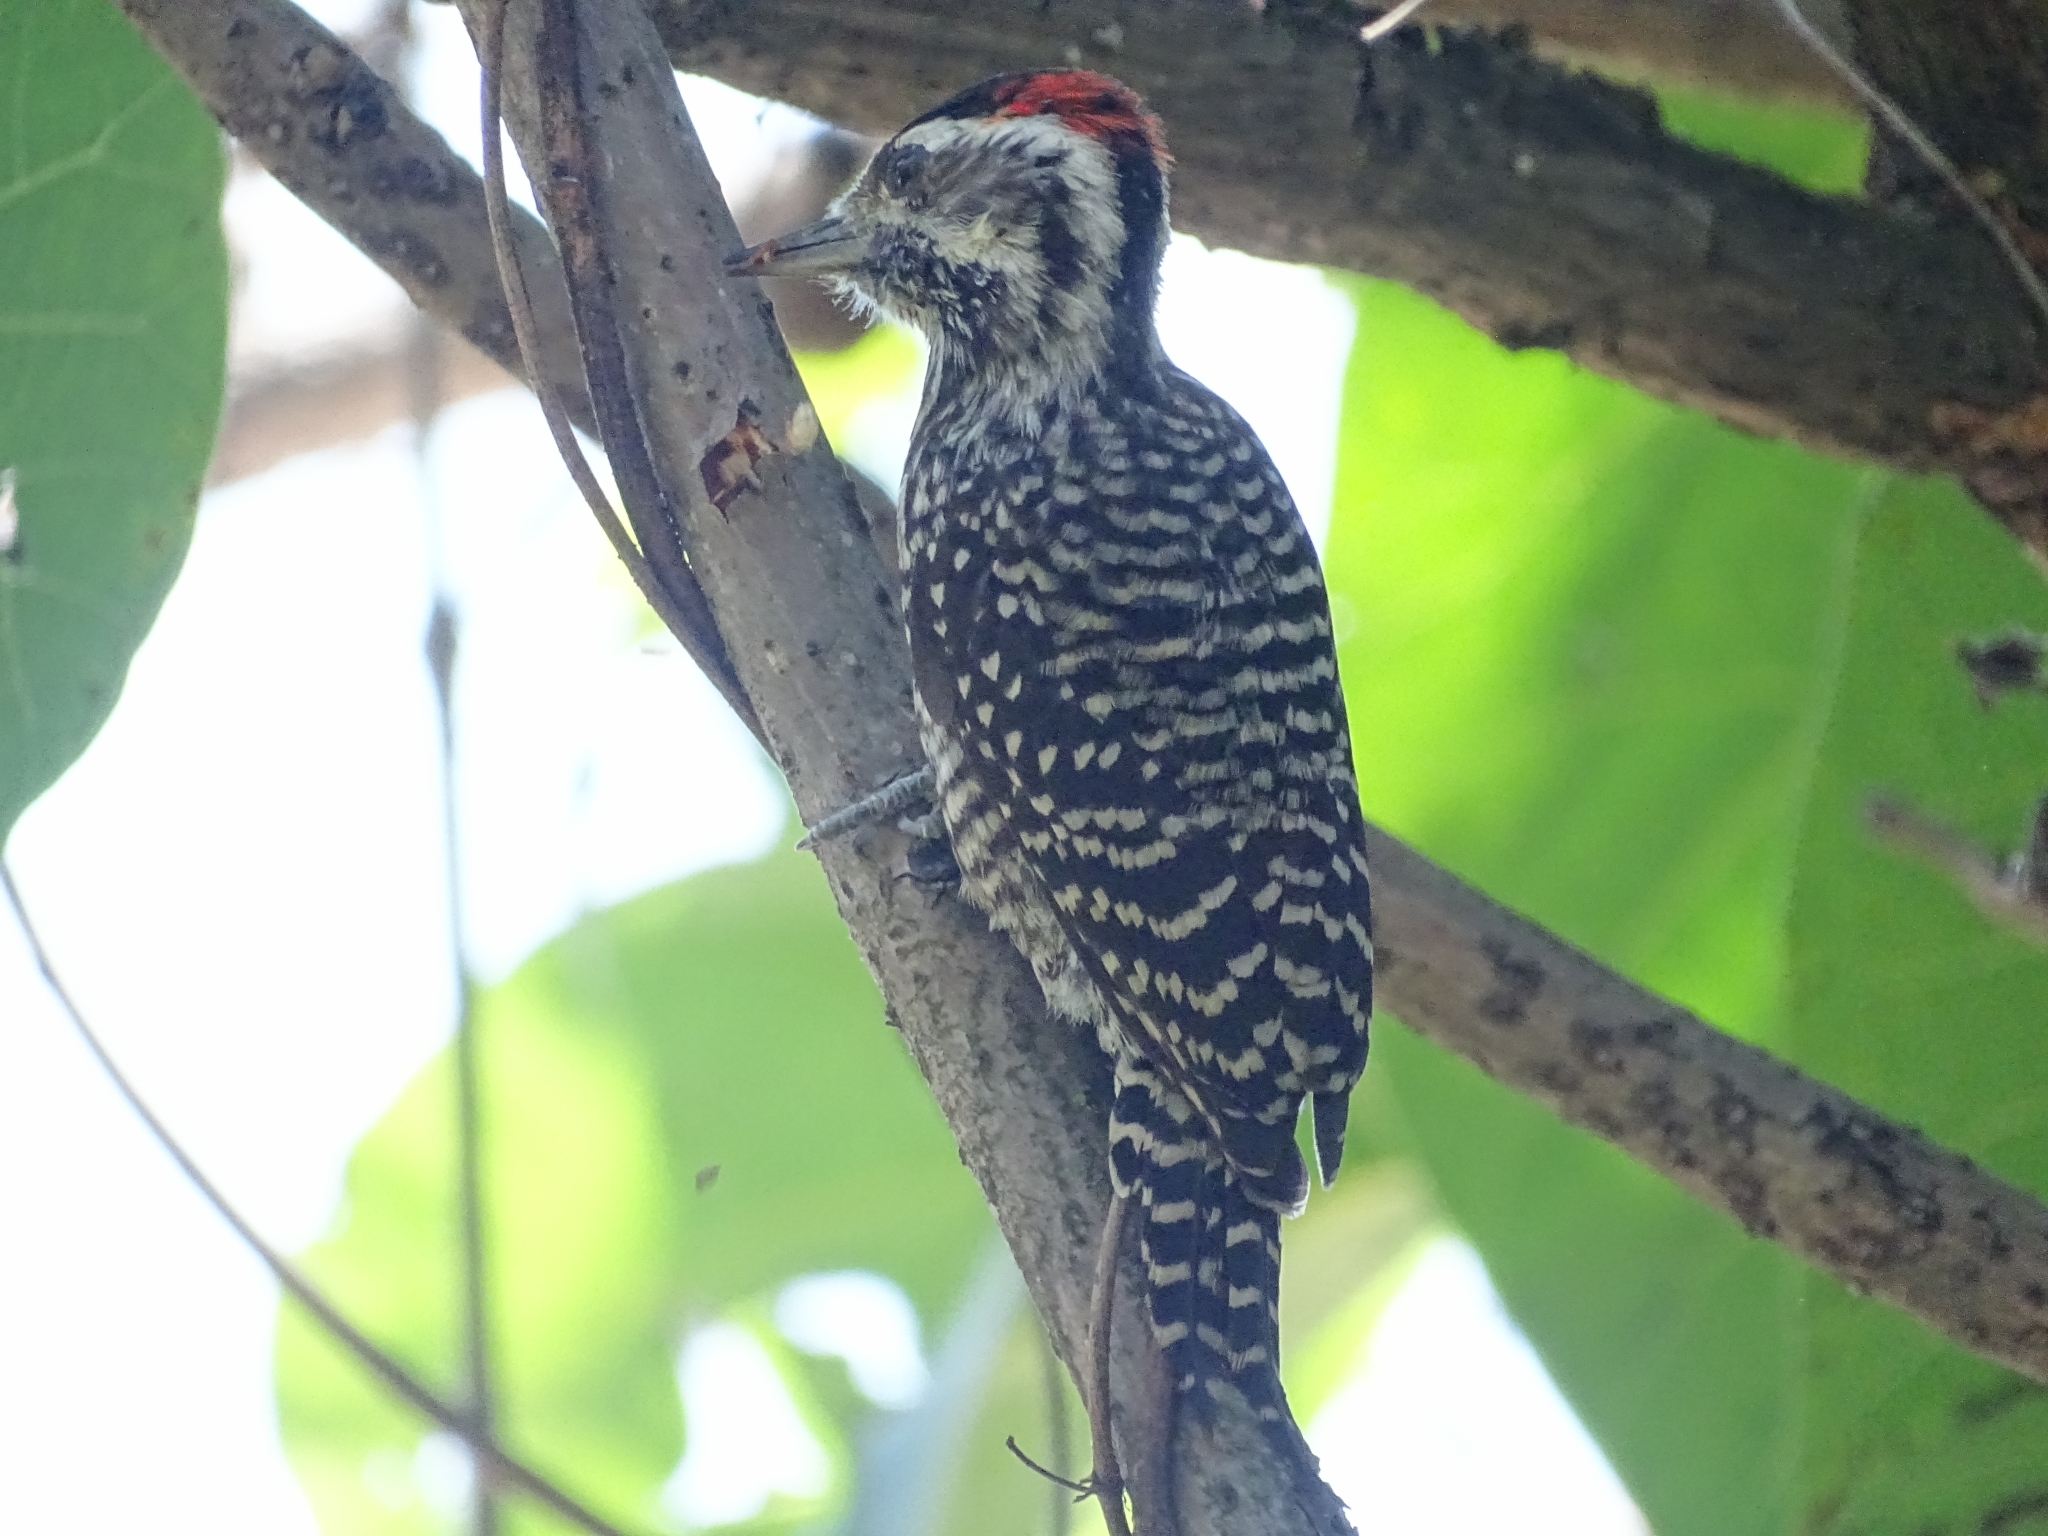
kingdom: Animalia
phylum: Chordata
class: Aves
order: Piciformes
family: Picidae
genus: Veniliornis
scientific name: Veniliornis lignarius
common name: Striped woodpecker
